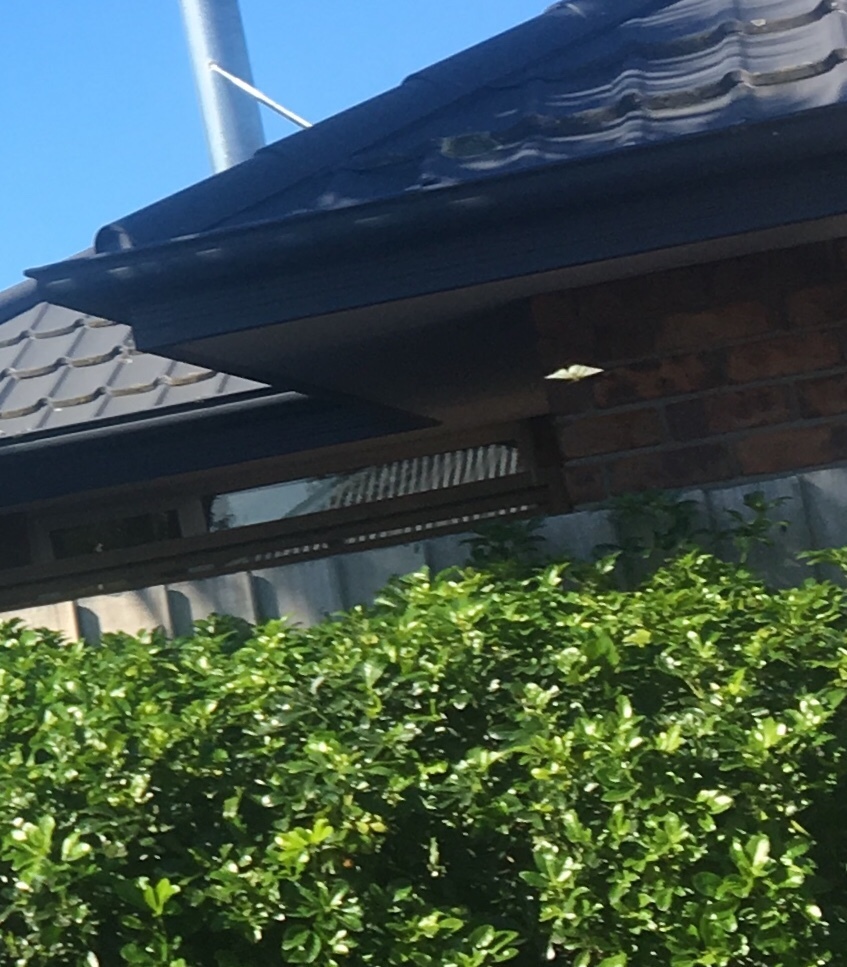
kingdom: Animalia
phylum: Arthropoda
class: Insecta
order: Lepidoptera
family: Pieridae
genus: Pieris
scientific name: Pieris rapae
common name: Small white
